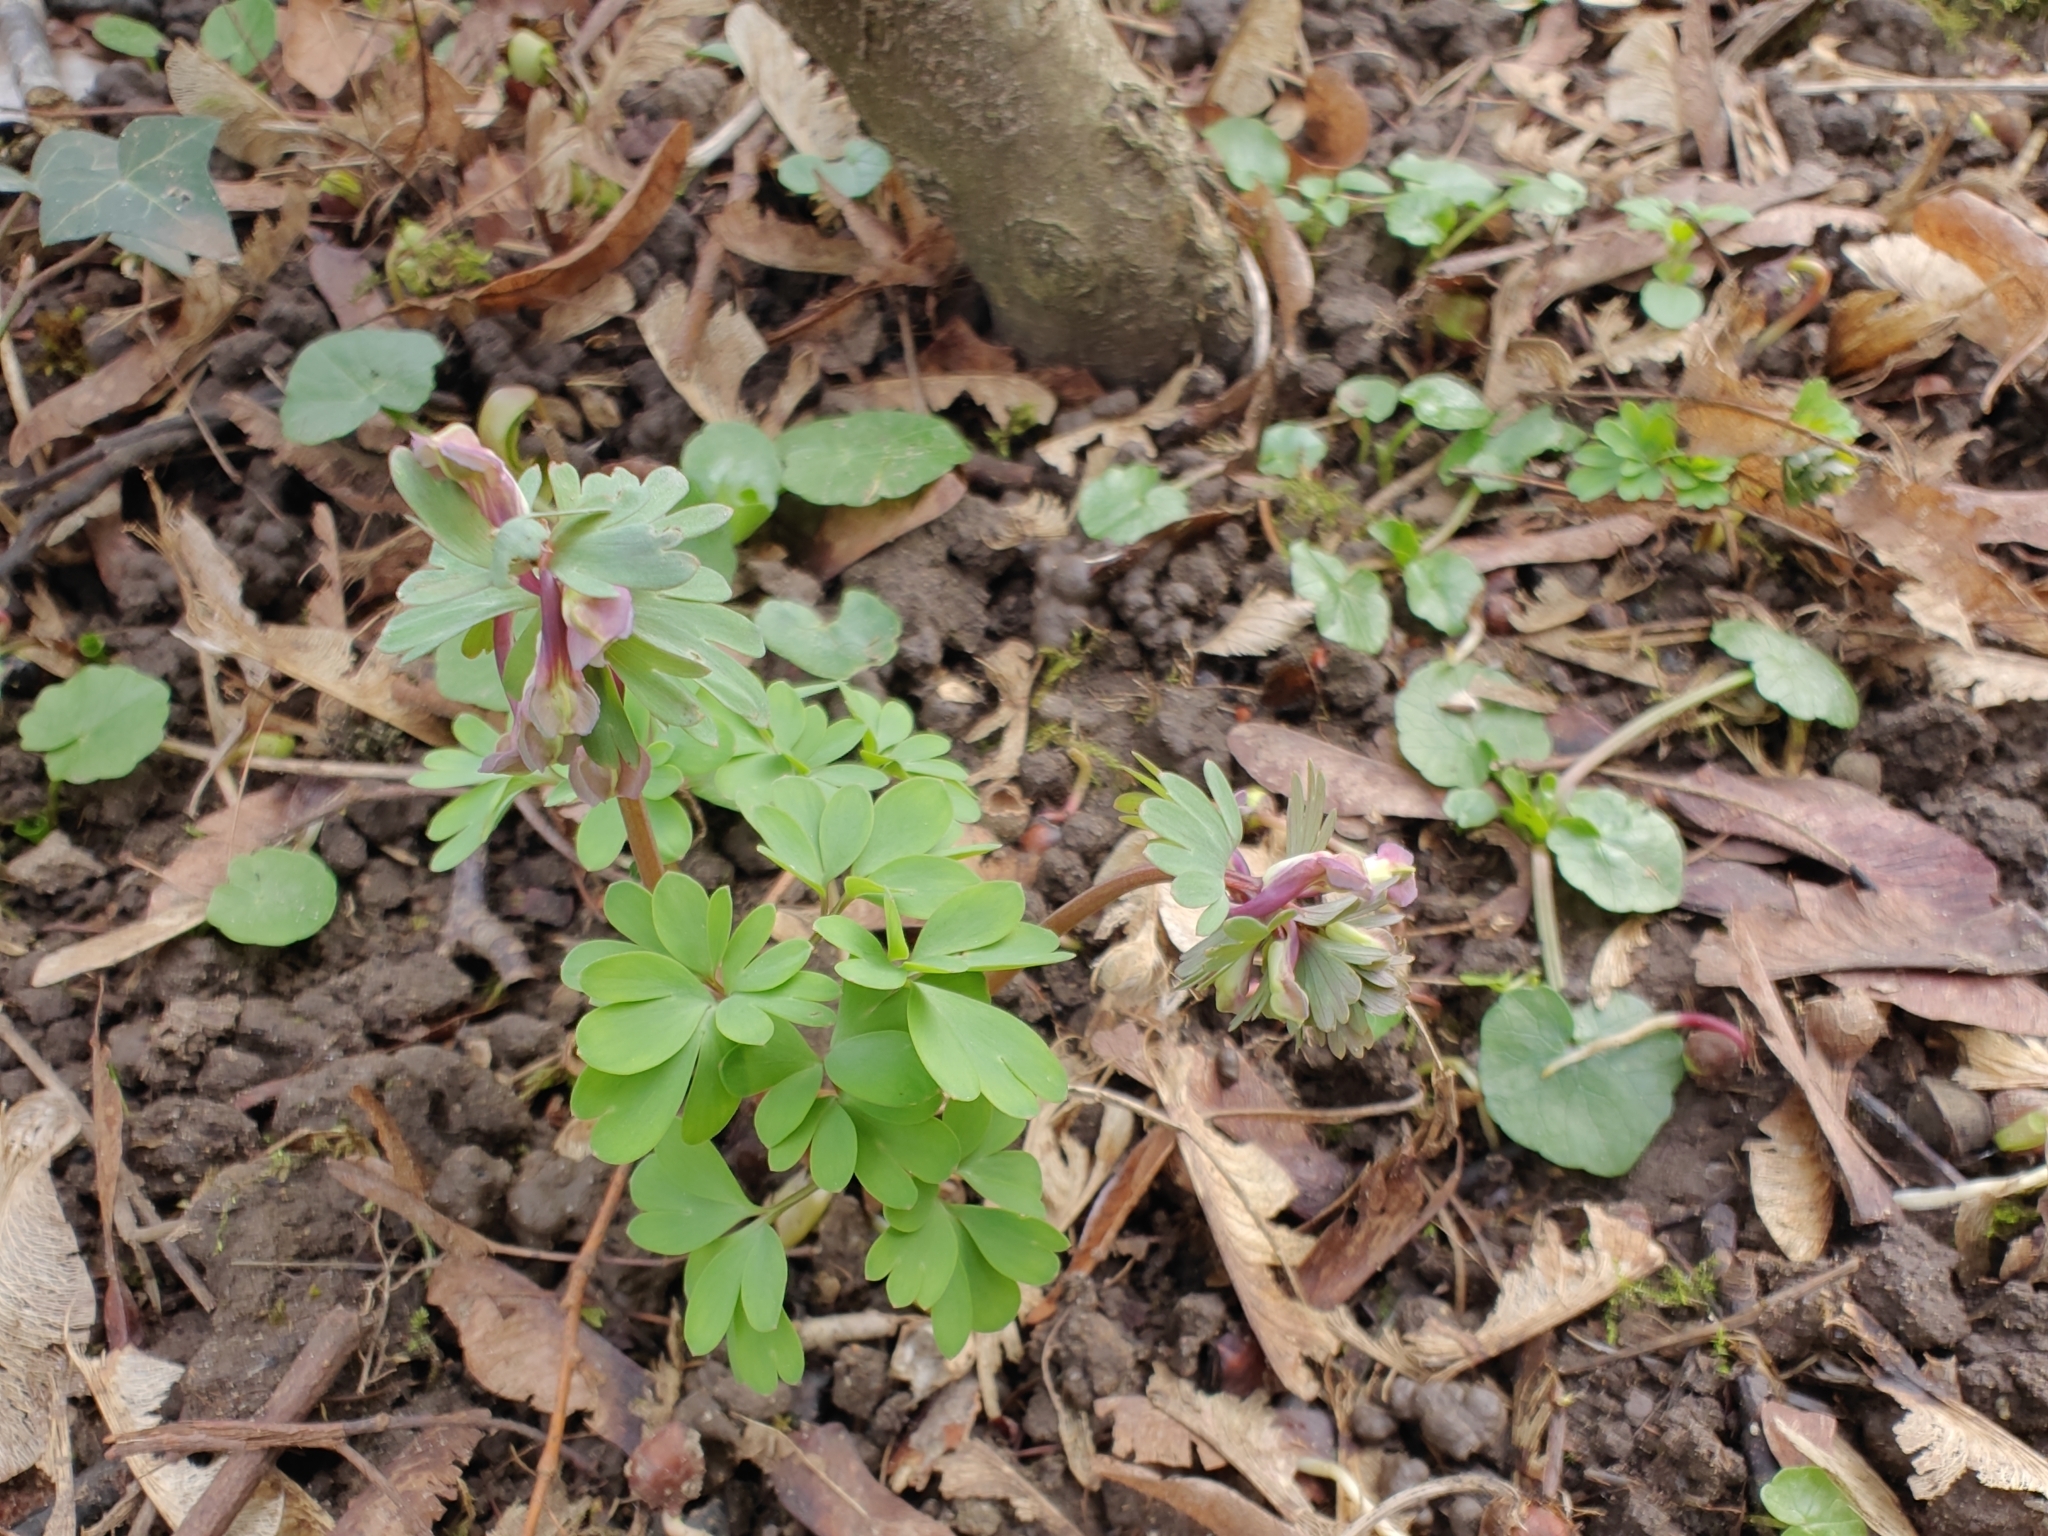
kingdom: Plantae
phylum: Tracheophyta
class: Magnoliopsida
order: Ranunculales
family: Papaveraceae
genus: Corydalis
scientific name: Corydalis solida
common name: Bird-in-a-bush
